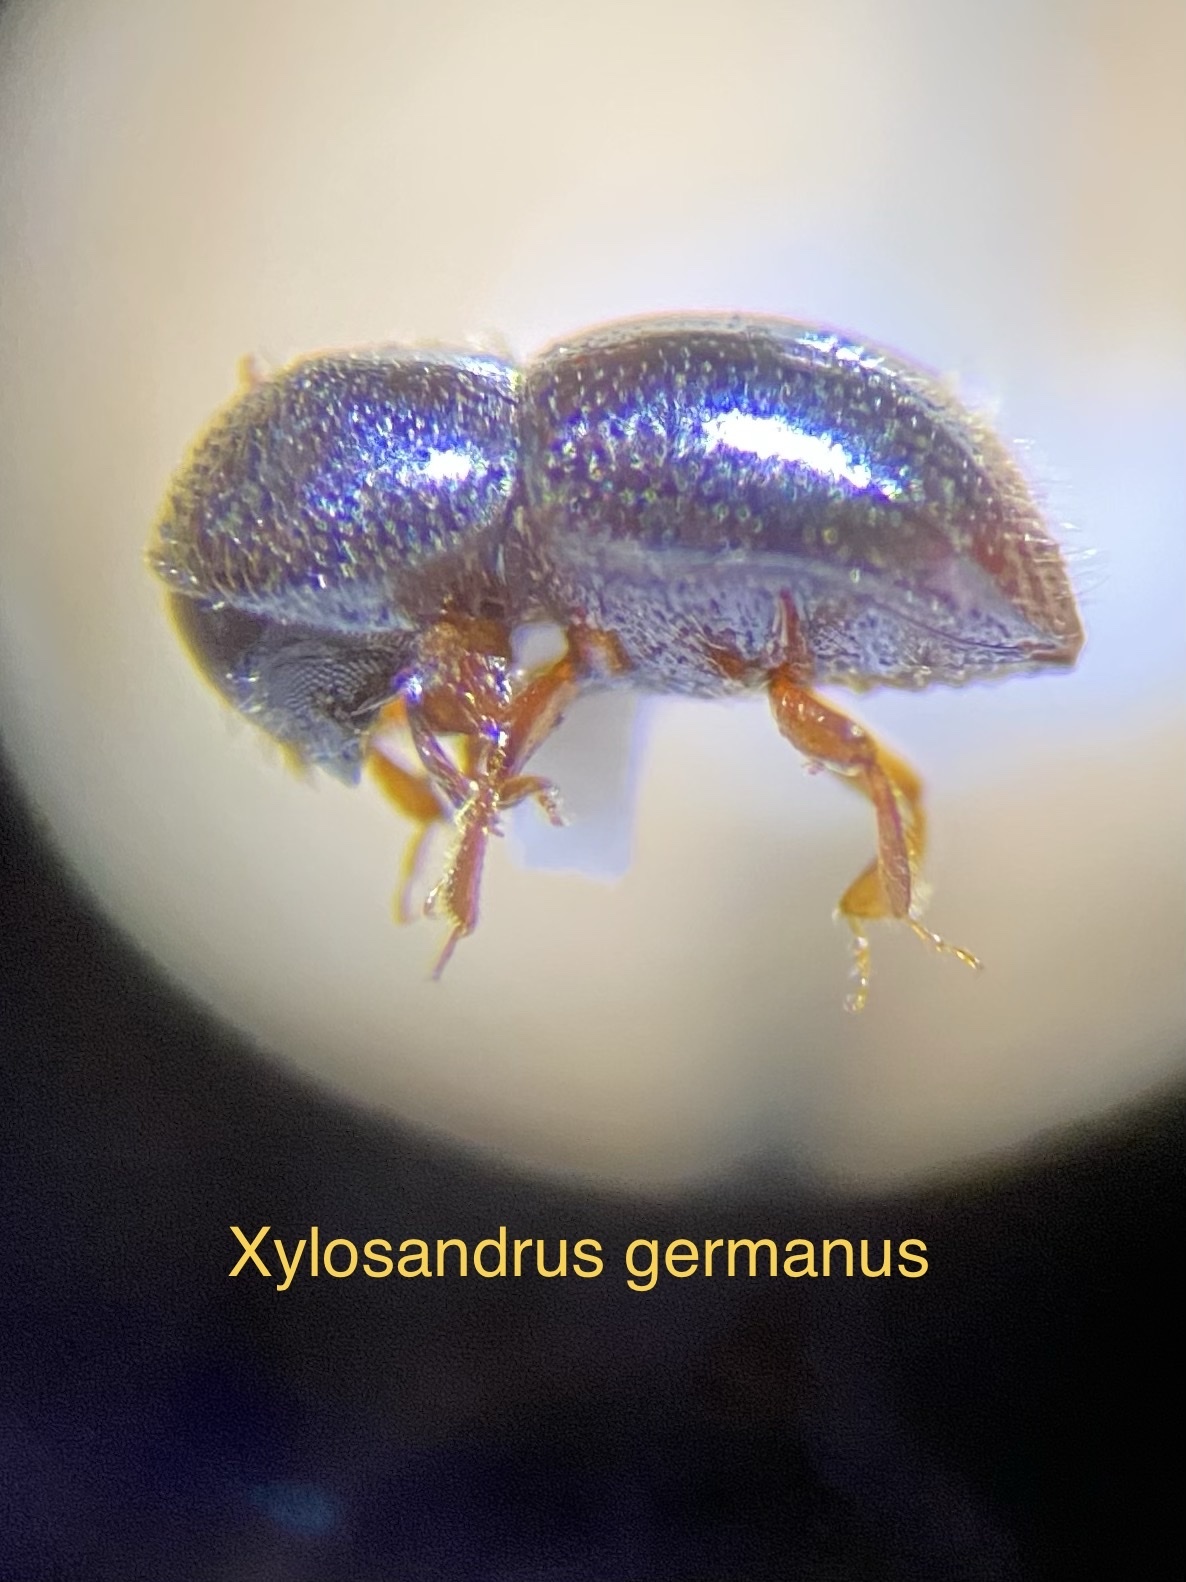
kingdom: Animalia
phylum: Arthropoda
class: Insecta
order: Coleoptera
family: Curculionidae
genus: Xylosandrus
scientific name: Xylosandrus germanus
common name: Bark beetle
